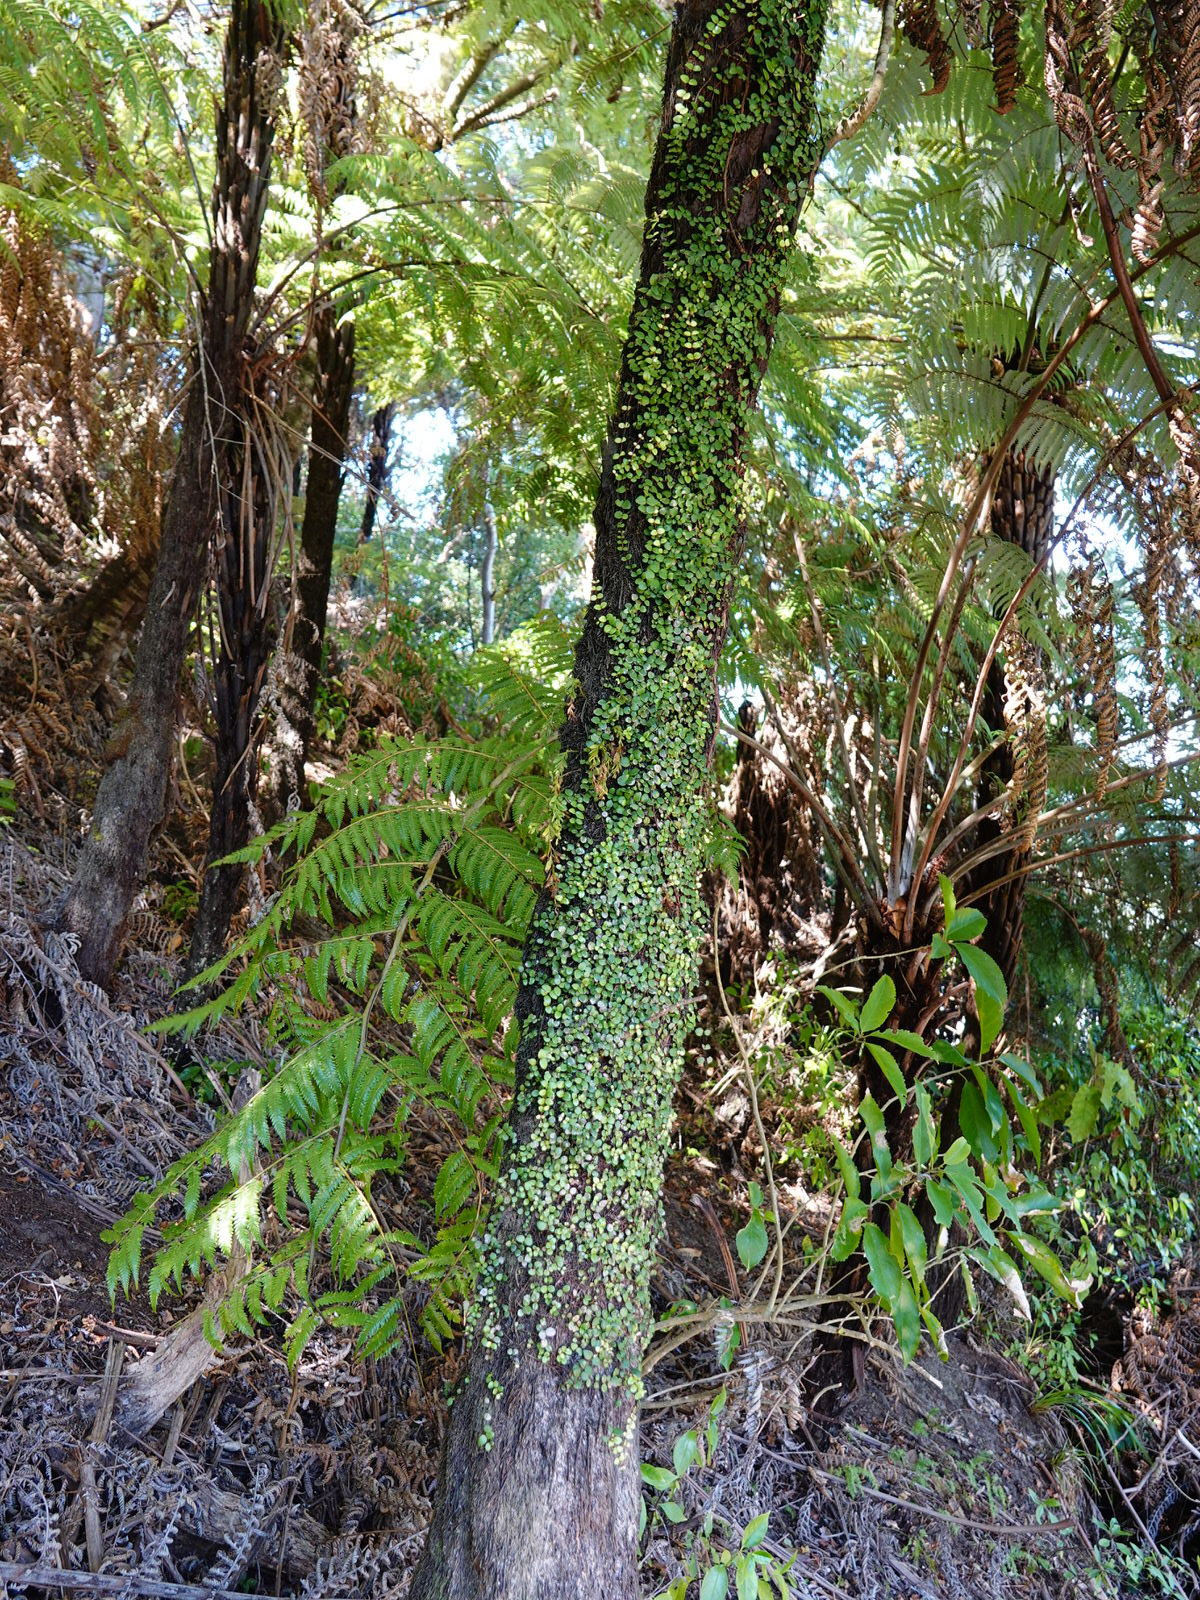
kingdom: Plantae
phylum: Tracheophyta
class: Magnoliopsida
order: Myrtales
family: Myrtaceae
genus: Metrosideros
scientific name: Metrosideros perforata
